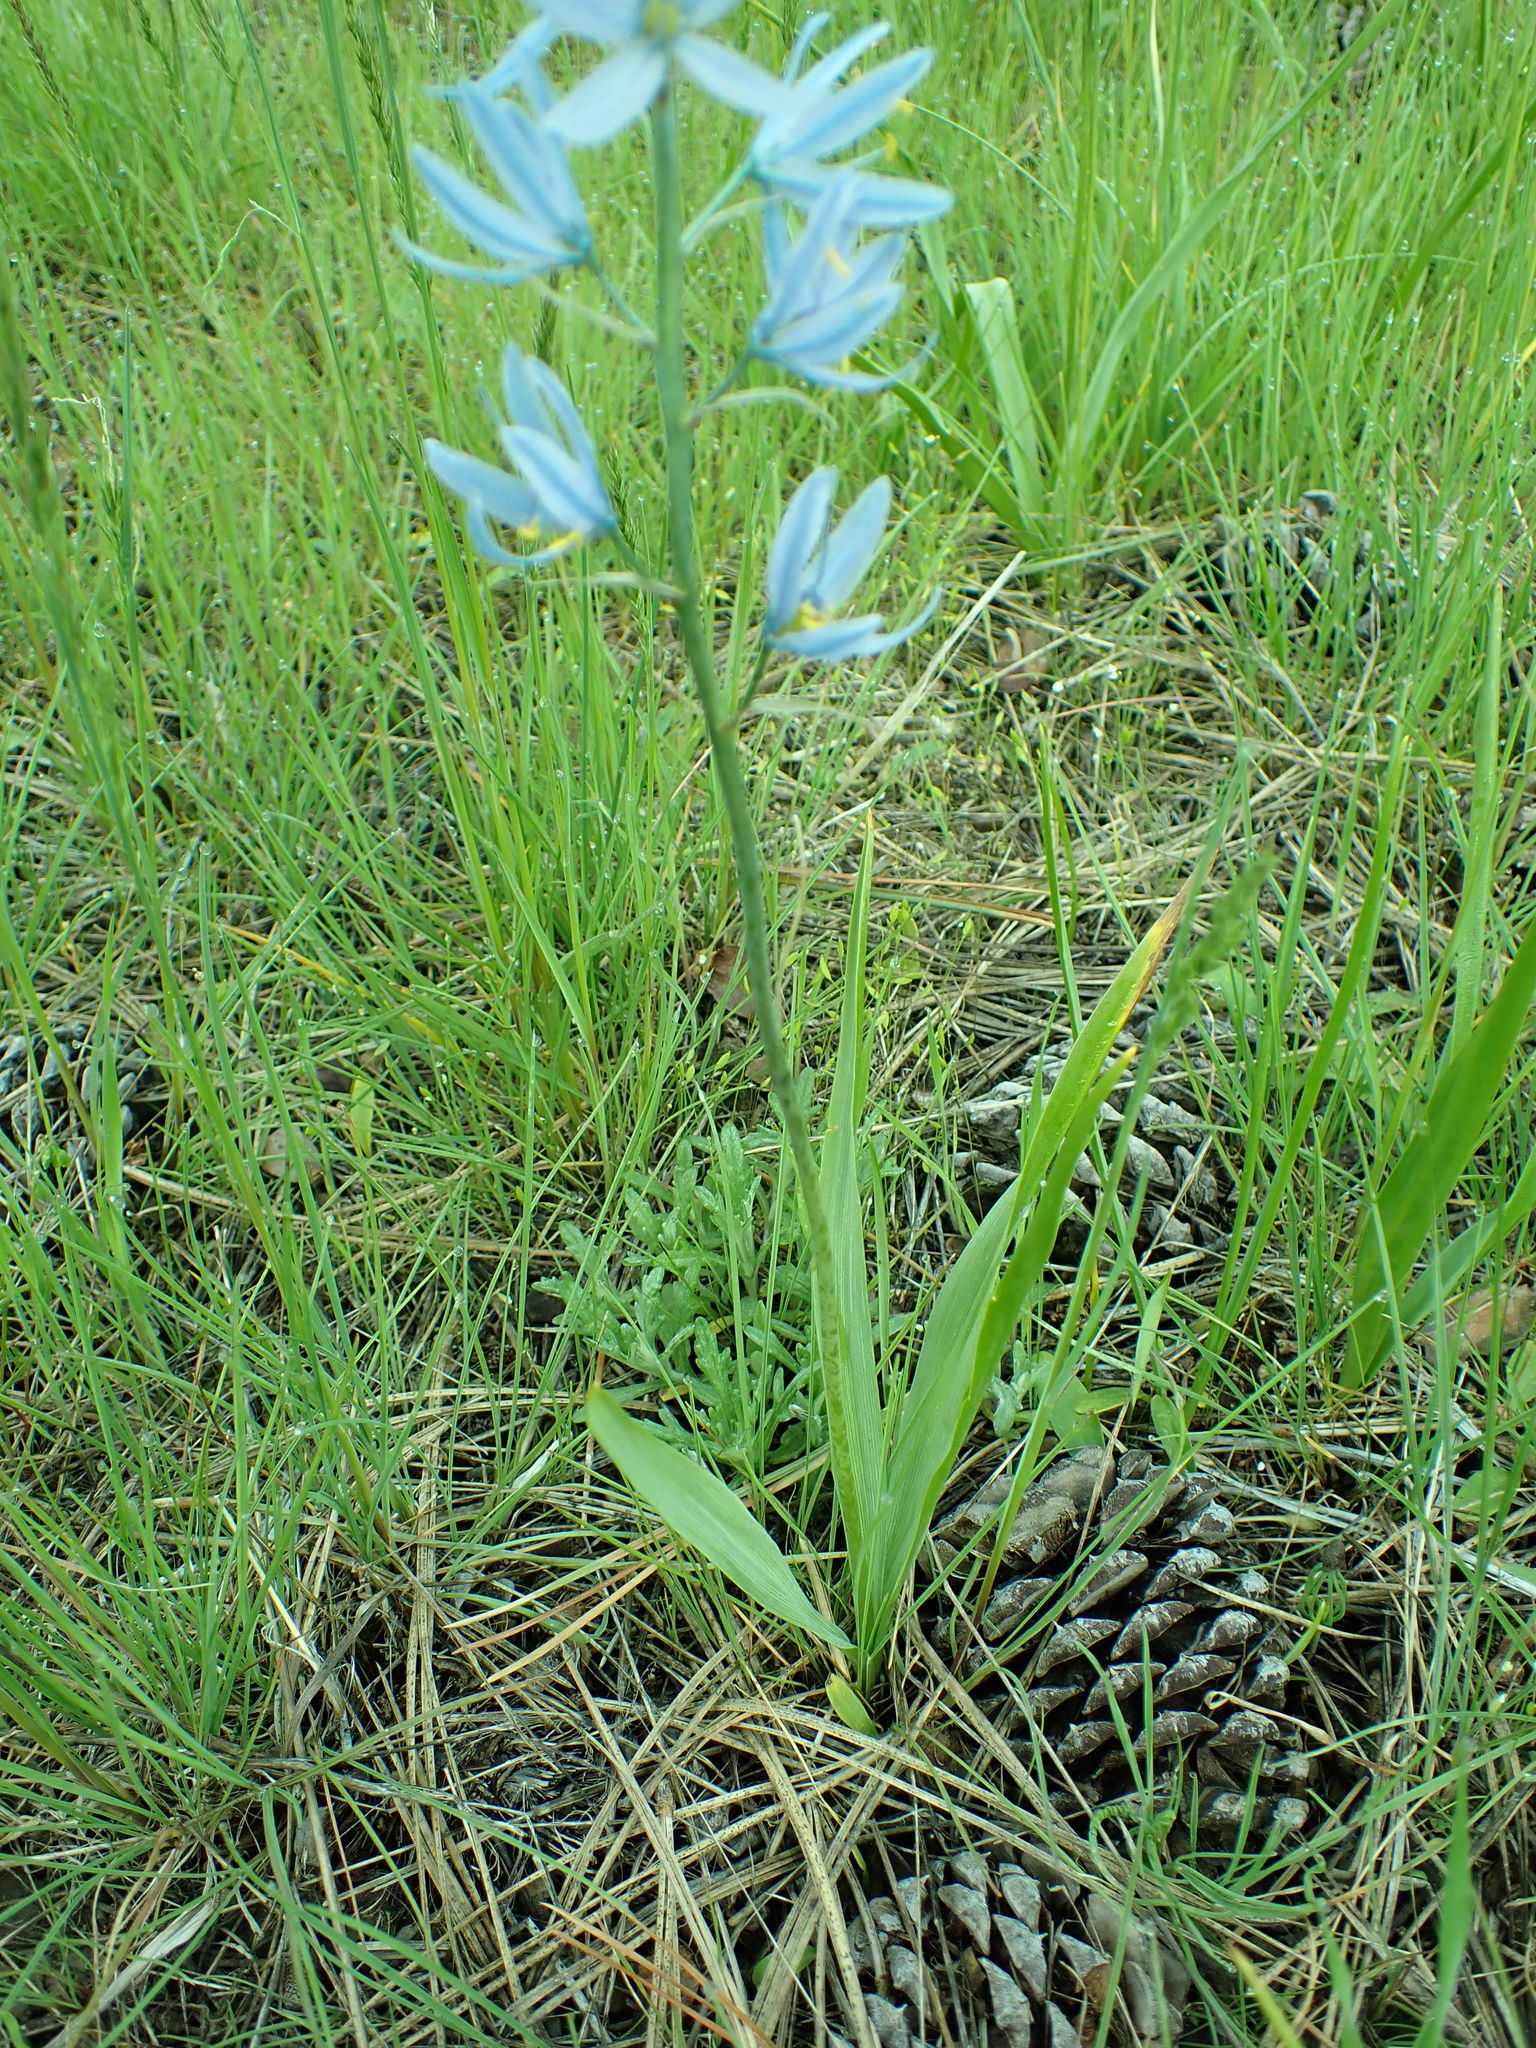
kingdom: Plantae
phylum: Tracheophyta
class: Liliopsida
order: Asparagales
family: Asparagaceae
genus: Camassia
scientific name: Camassia quamash
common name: Common camas
